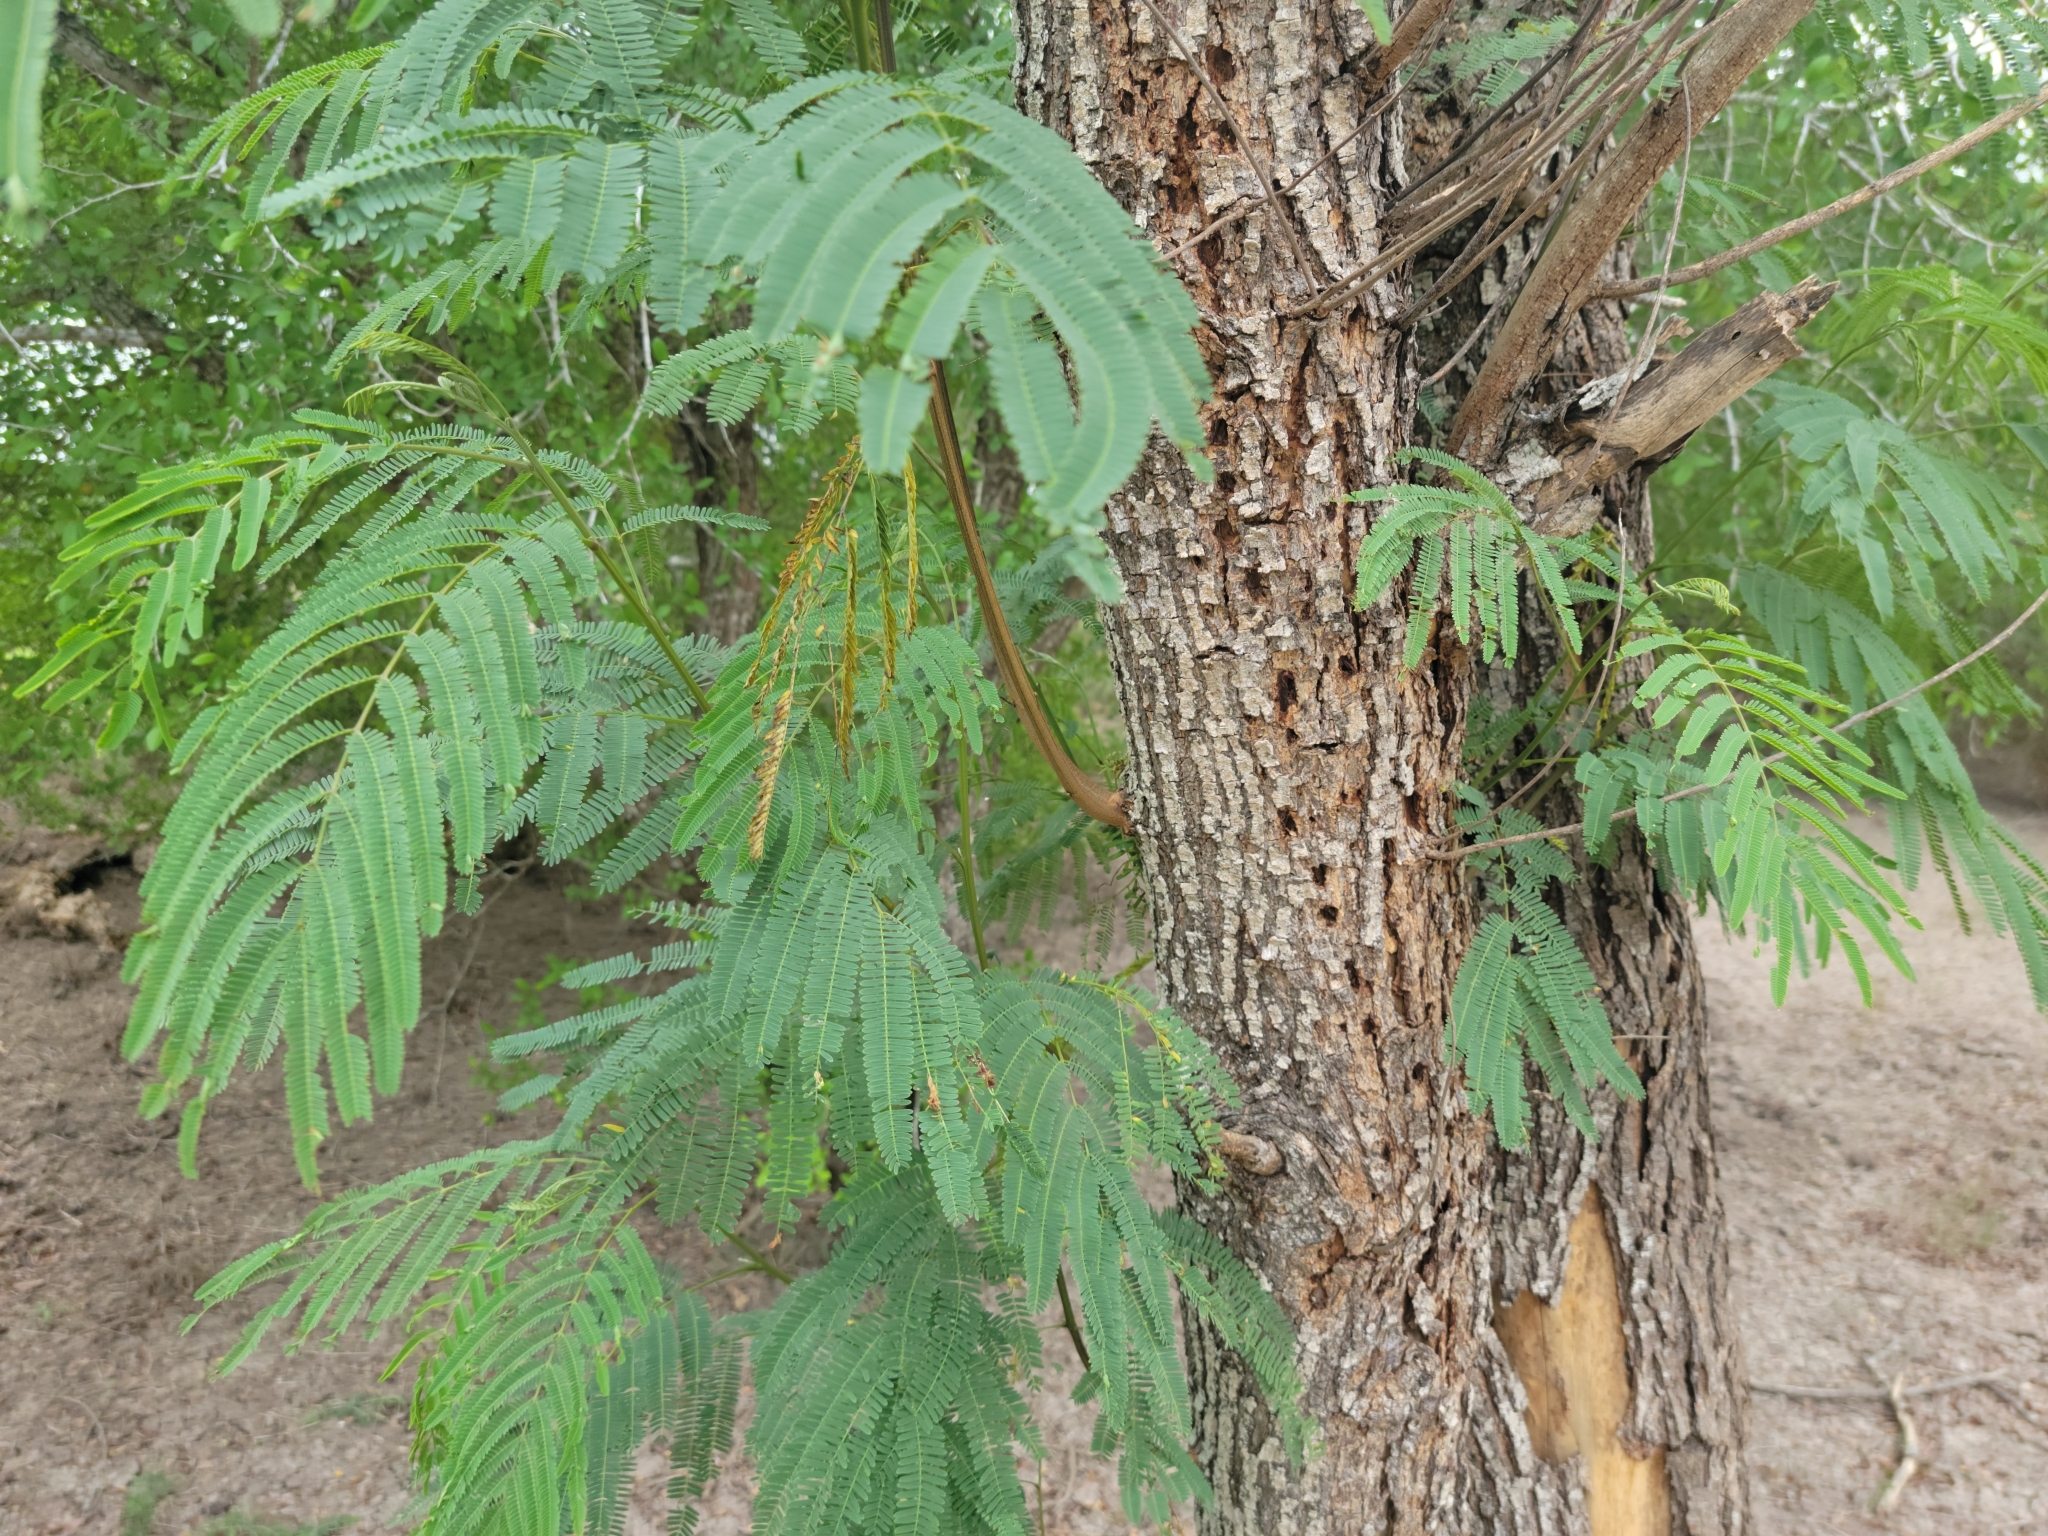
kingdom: Plantae
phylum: Tracheophyta
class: Magnoliopsida
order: Fabales
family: Fabaceae
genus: Leucaena
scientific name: Leucaena pulverulenta
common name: Great leadtree
